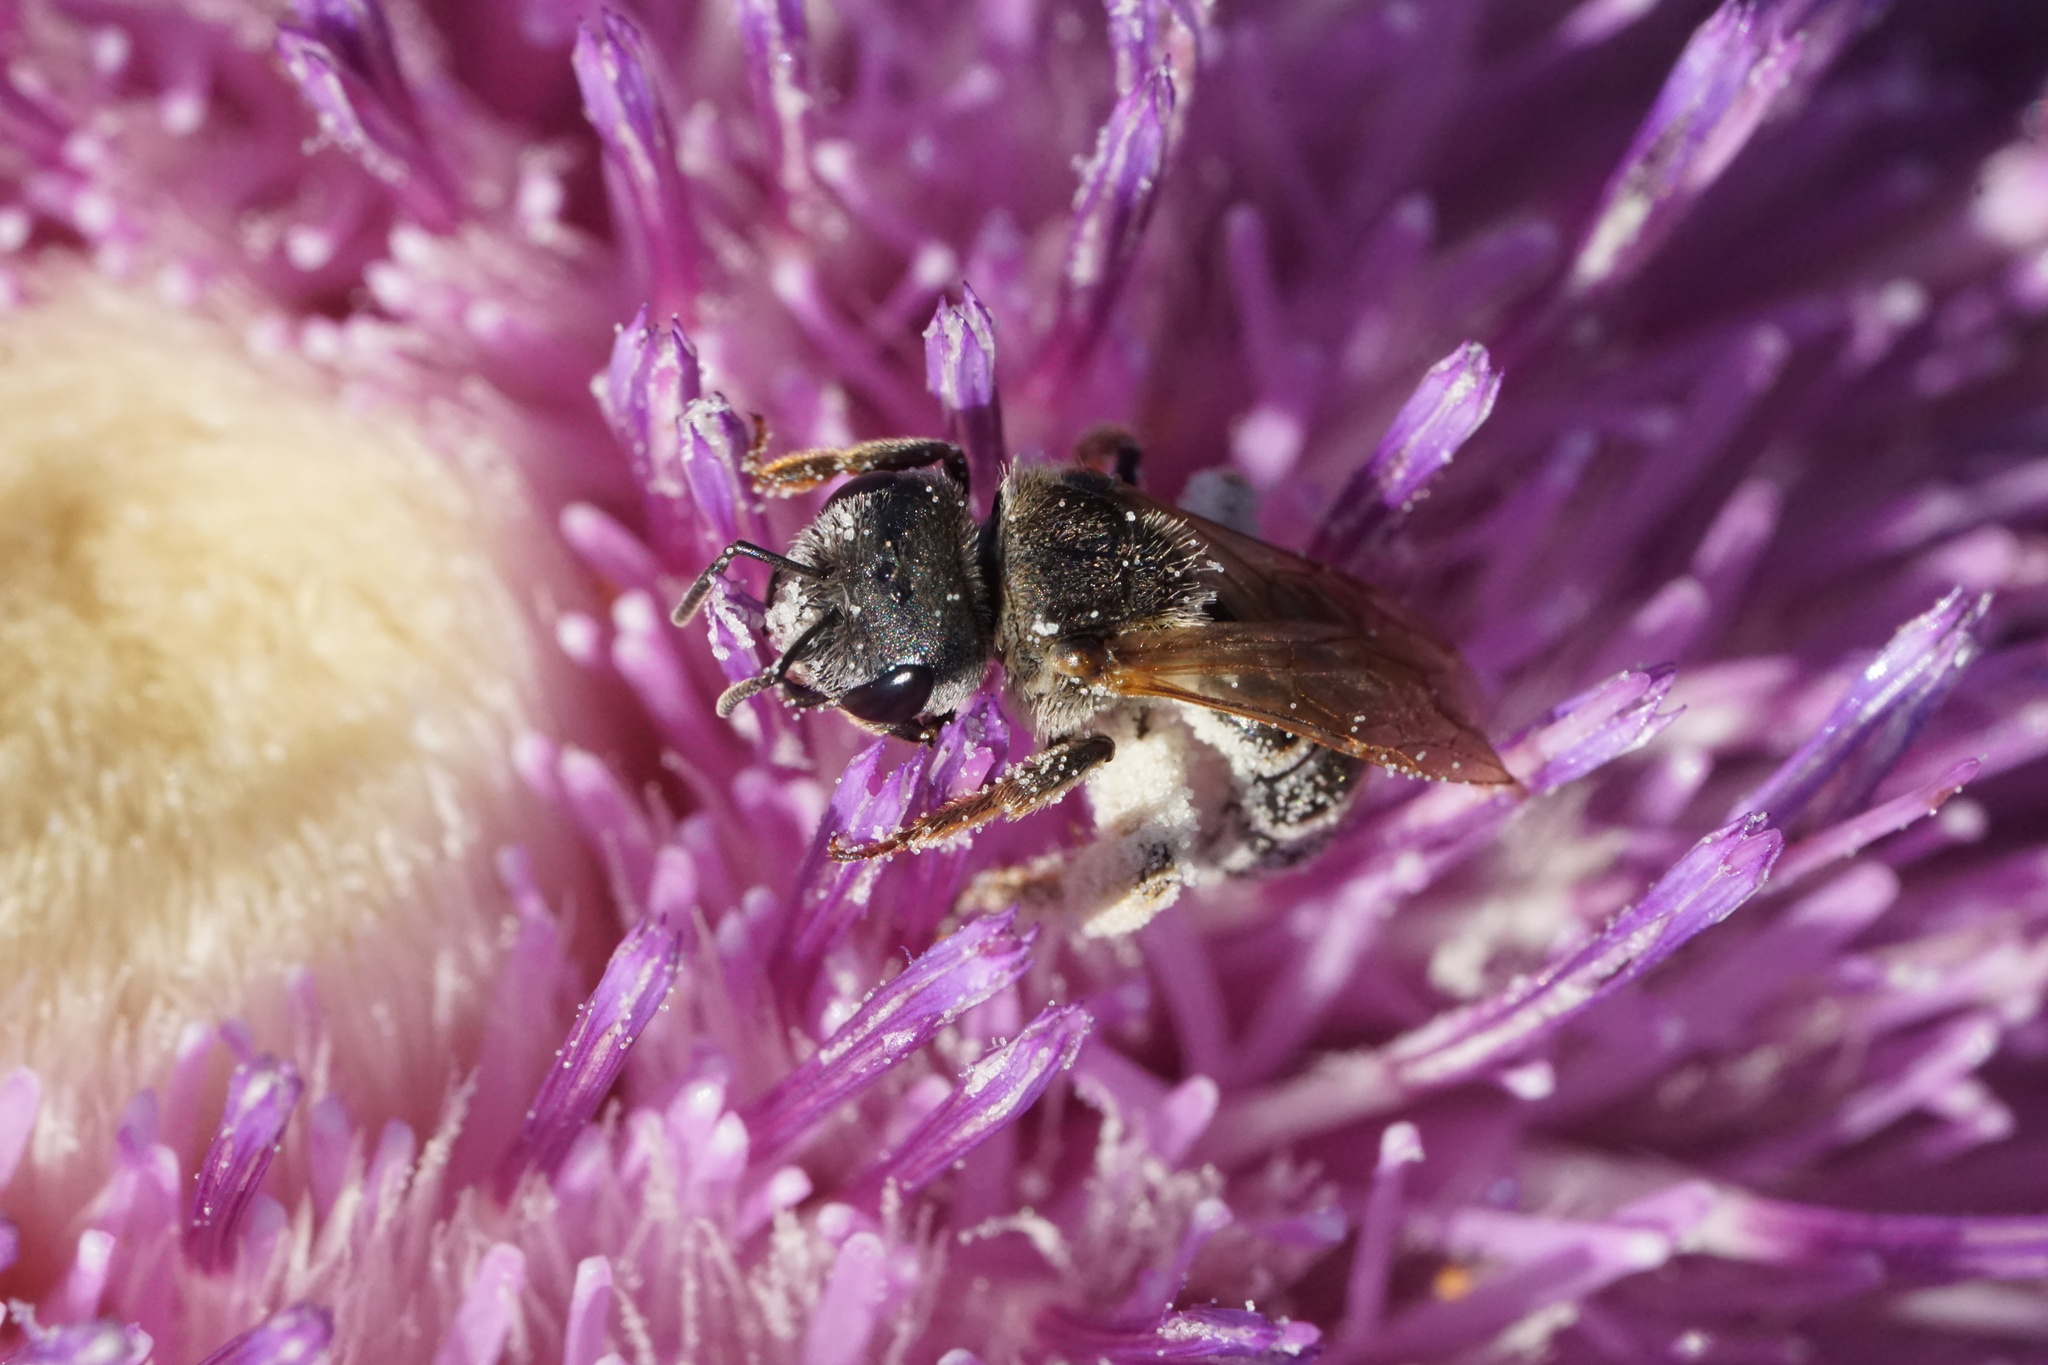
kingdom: Animalia
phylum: Arthropoda
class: Insecta
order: Hymenoptera
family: Halictidae
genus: Halictus
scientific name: Halictus ligatus
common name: Ligated furrow bee
